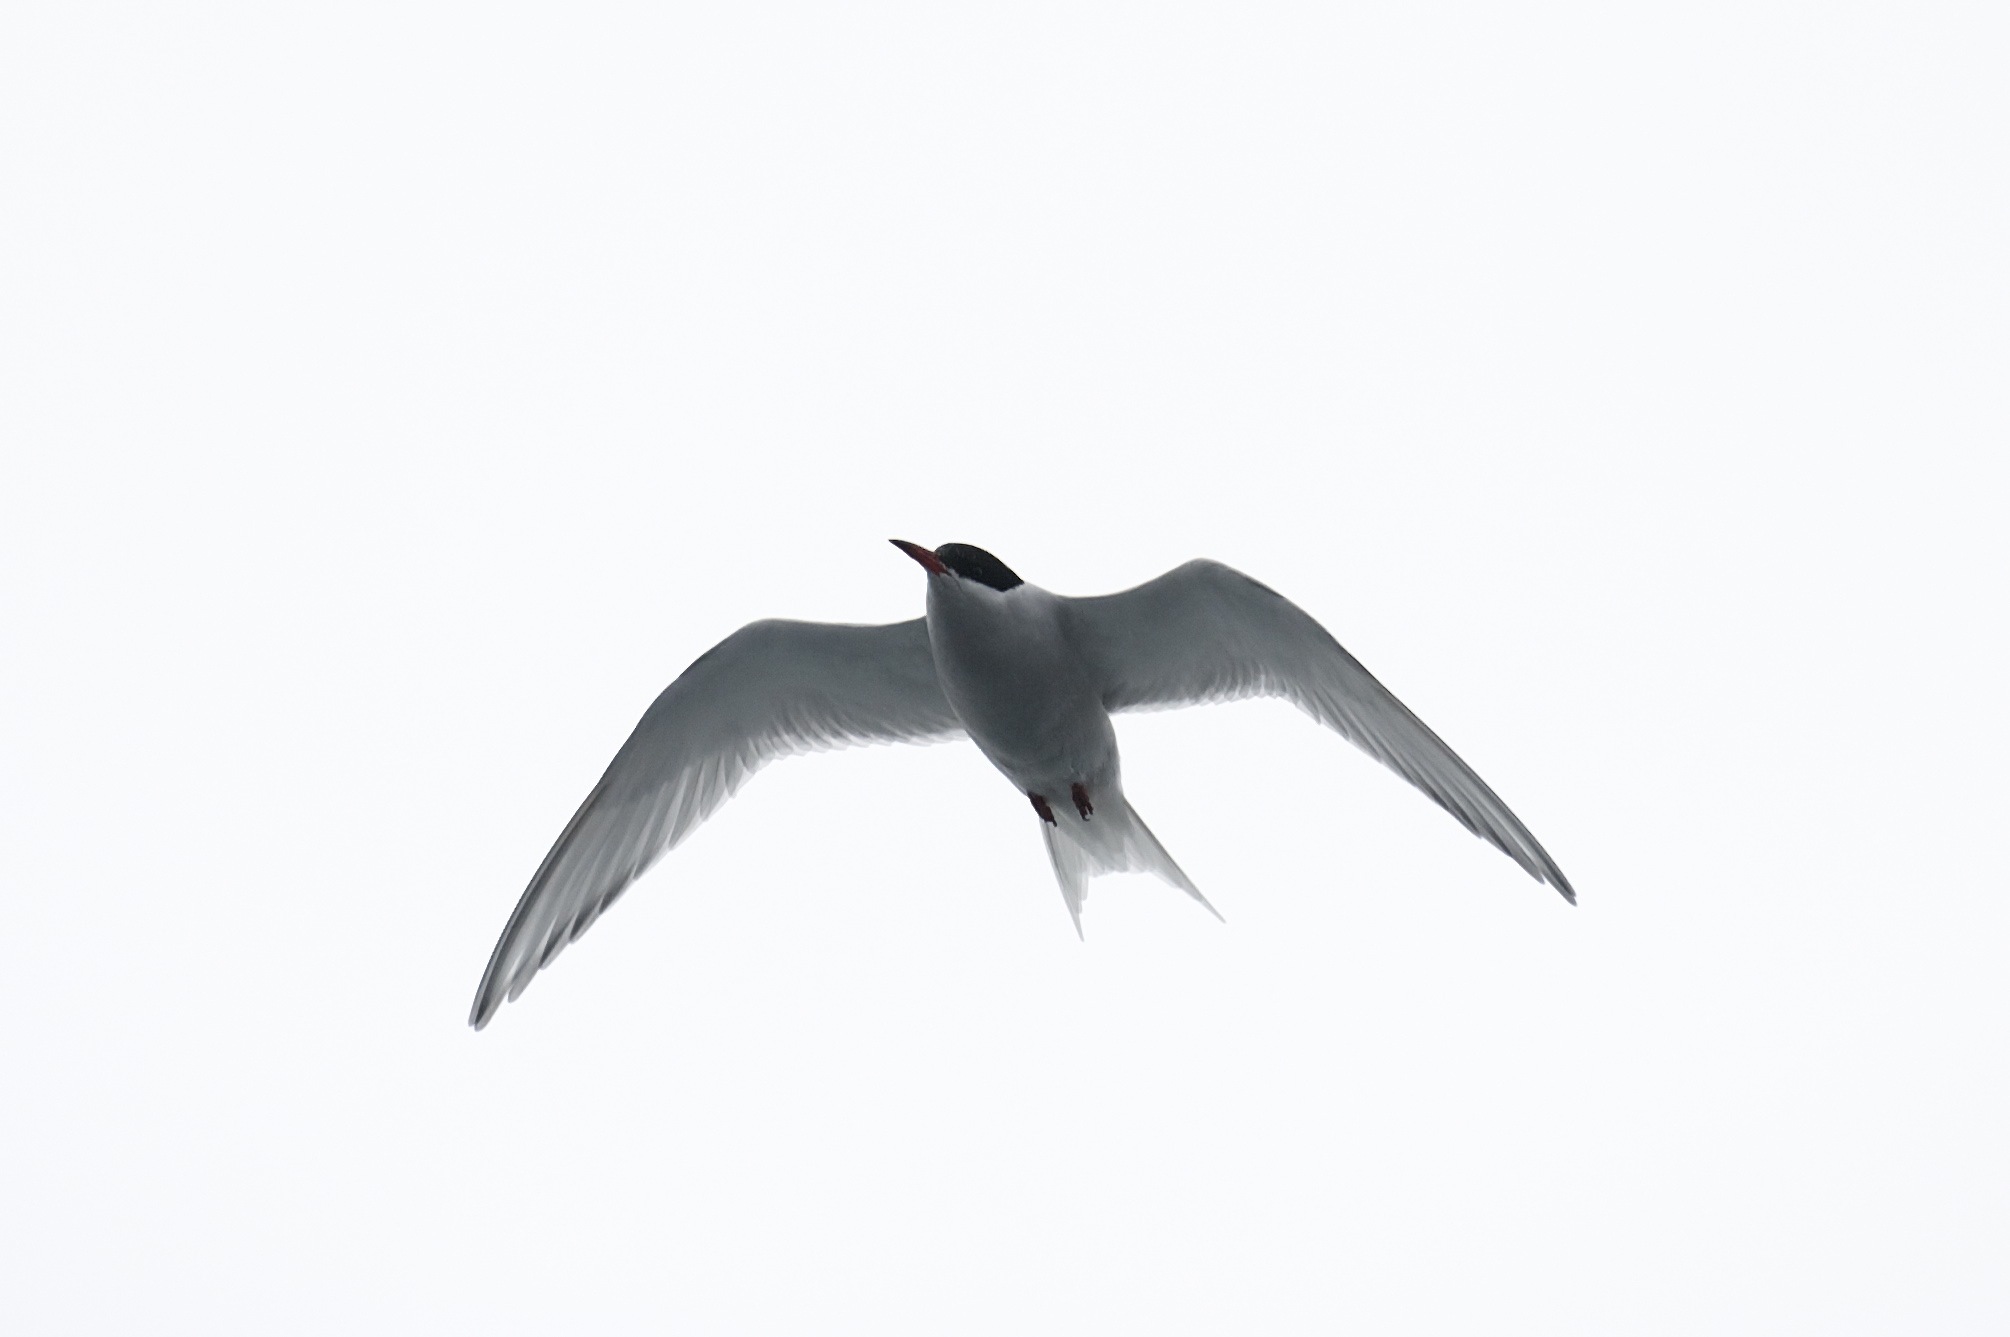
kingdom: Animalia
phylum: Chordata
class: Aves
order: Charadriiformes
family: Laridae
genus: Sterna
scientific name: Sterna vittata
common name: Antarctic tern
